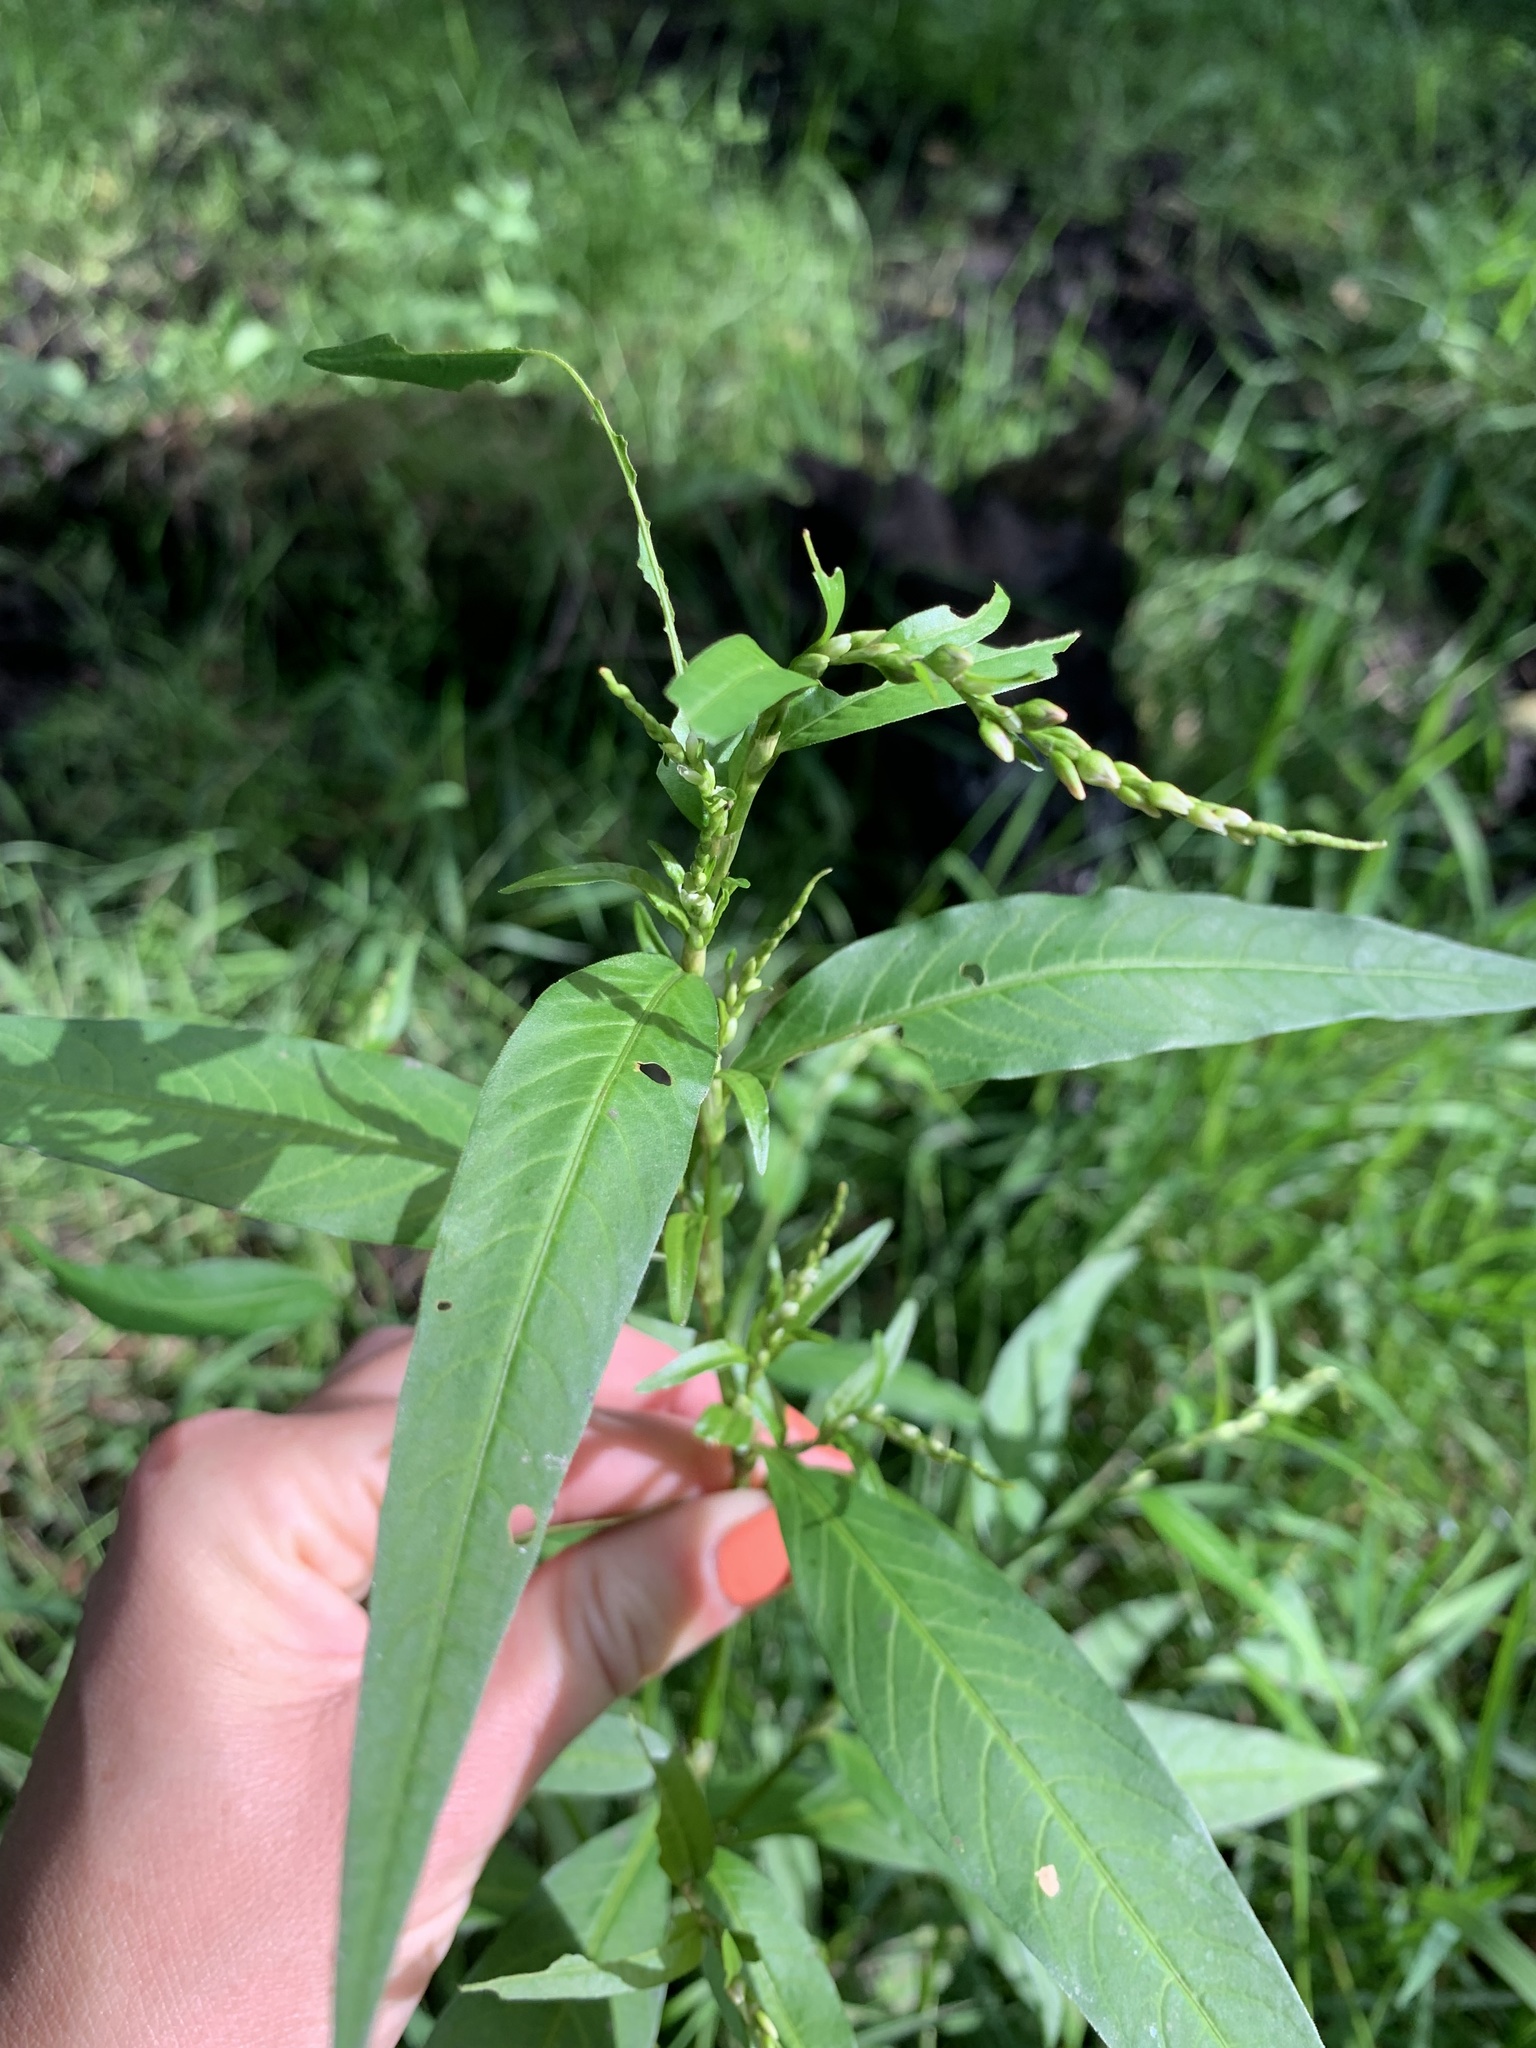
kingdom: Plantae
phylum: Tracheophyta
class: Magnoliopsida
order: Caryophyllales
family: Polygonaceae
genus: Persicaria
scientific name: Persicaria hydropiper
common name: Water-pepper
